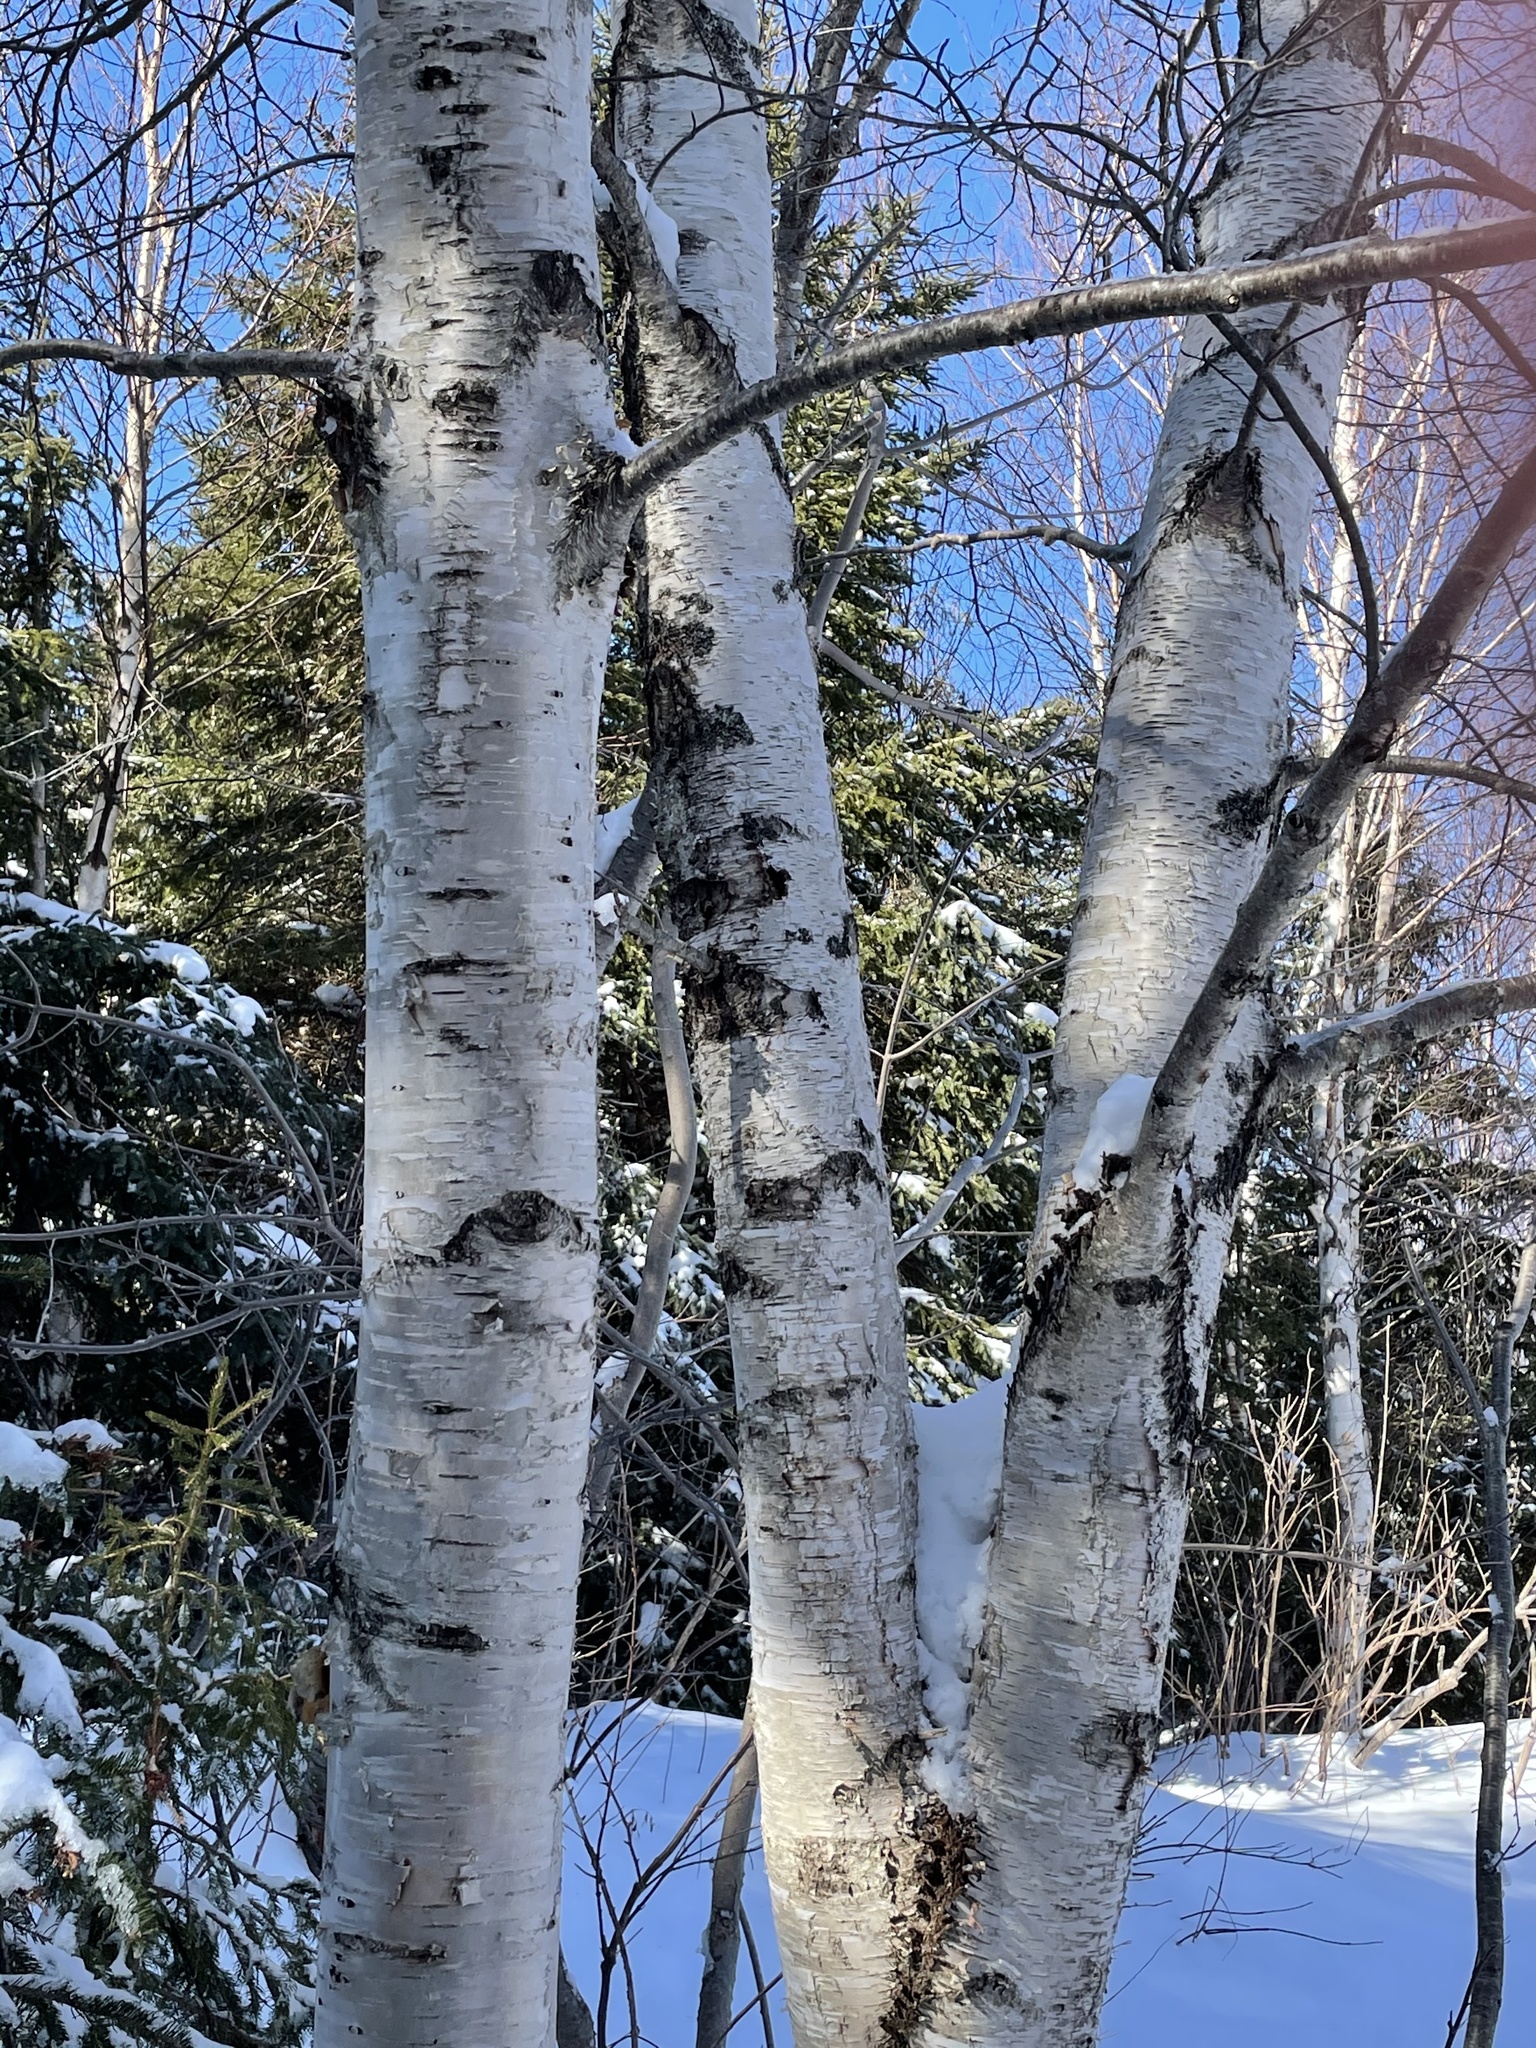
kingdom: Plantae
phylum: Tracheophyta
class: Magnoliopsida
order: Fagales
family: Betulaceae
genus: Betula
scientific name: Betula papyrifera
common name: Paper birch
